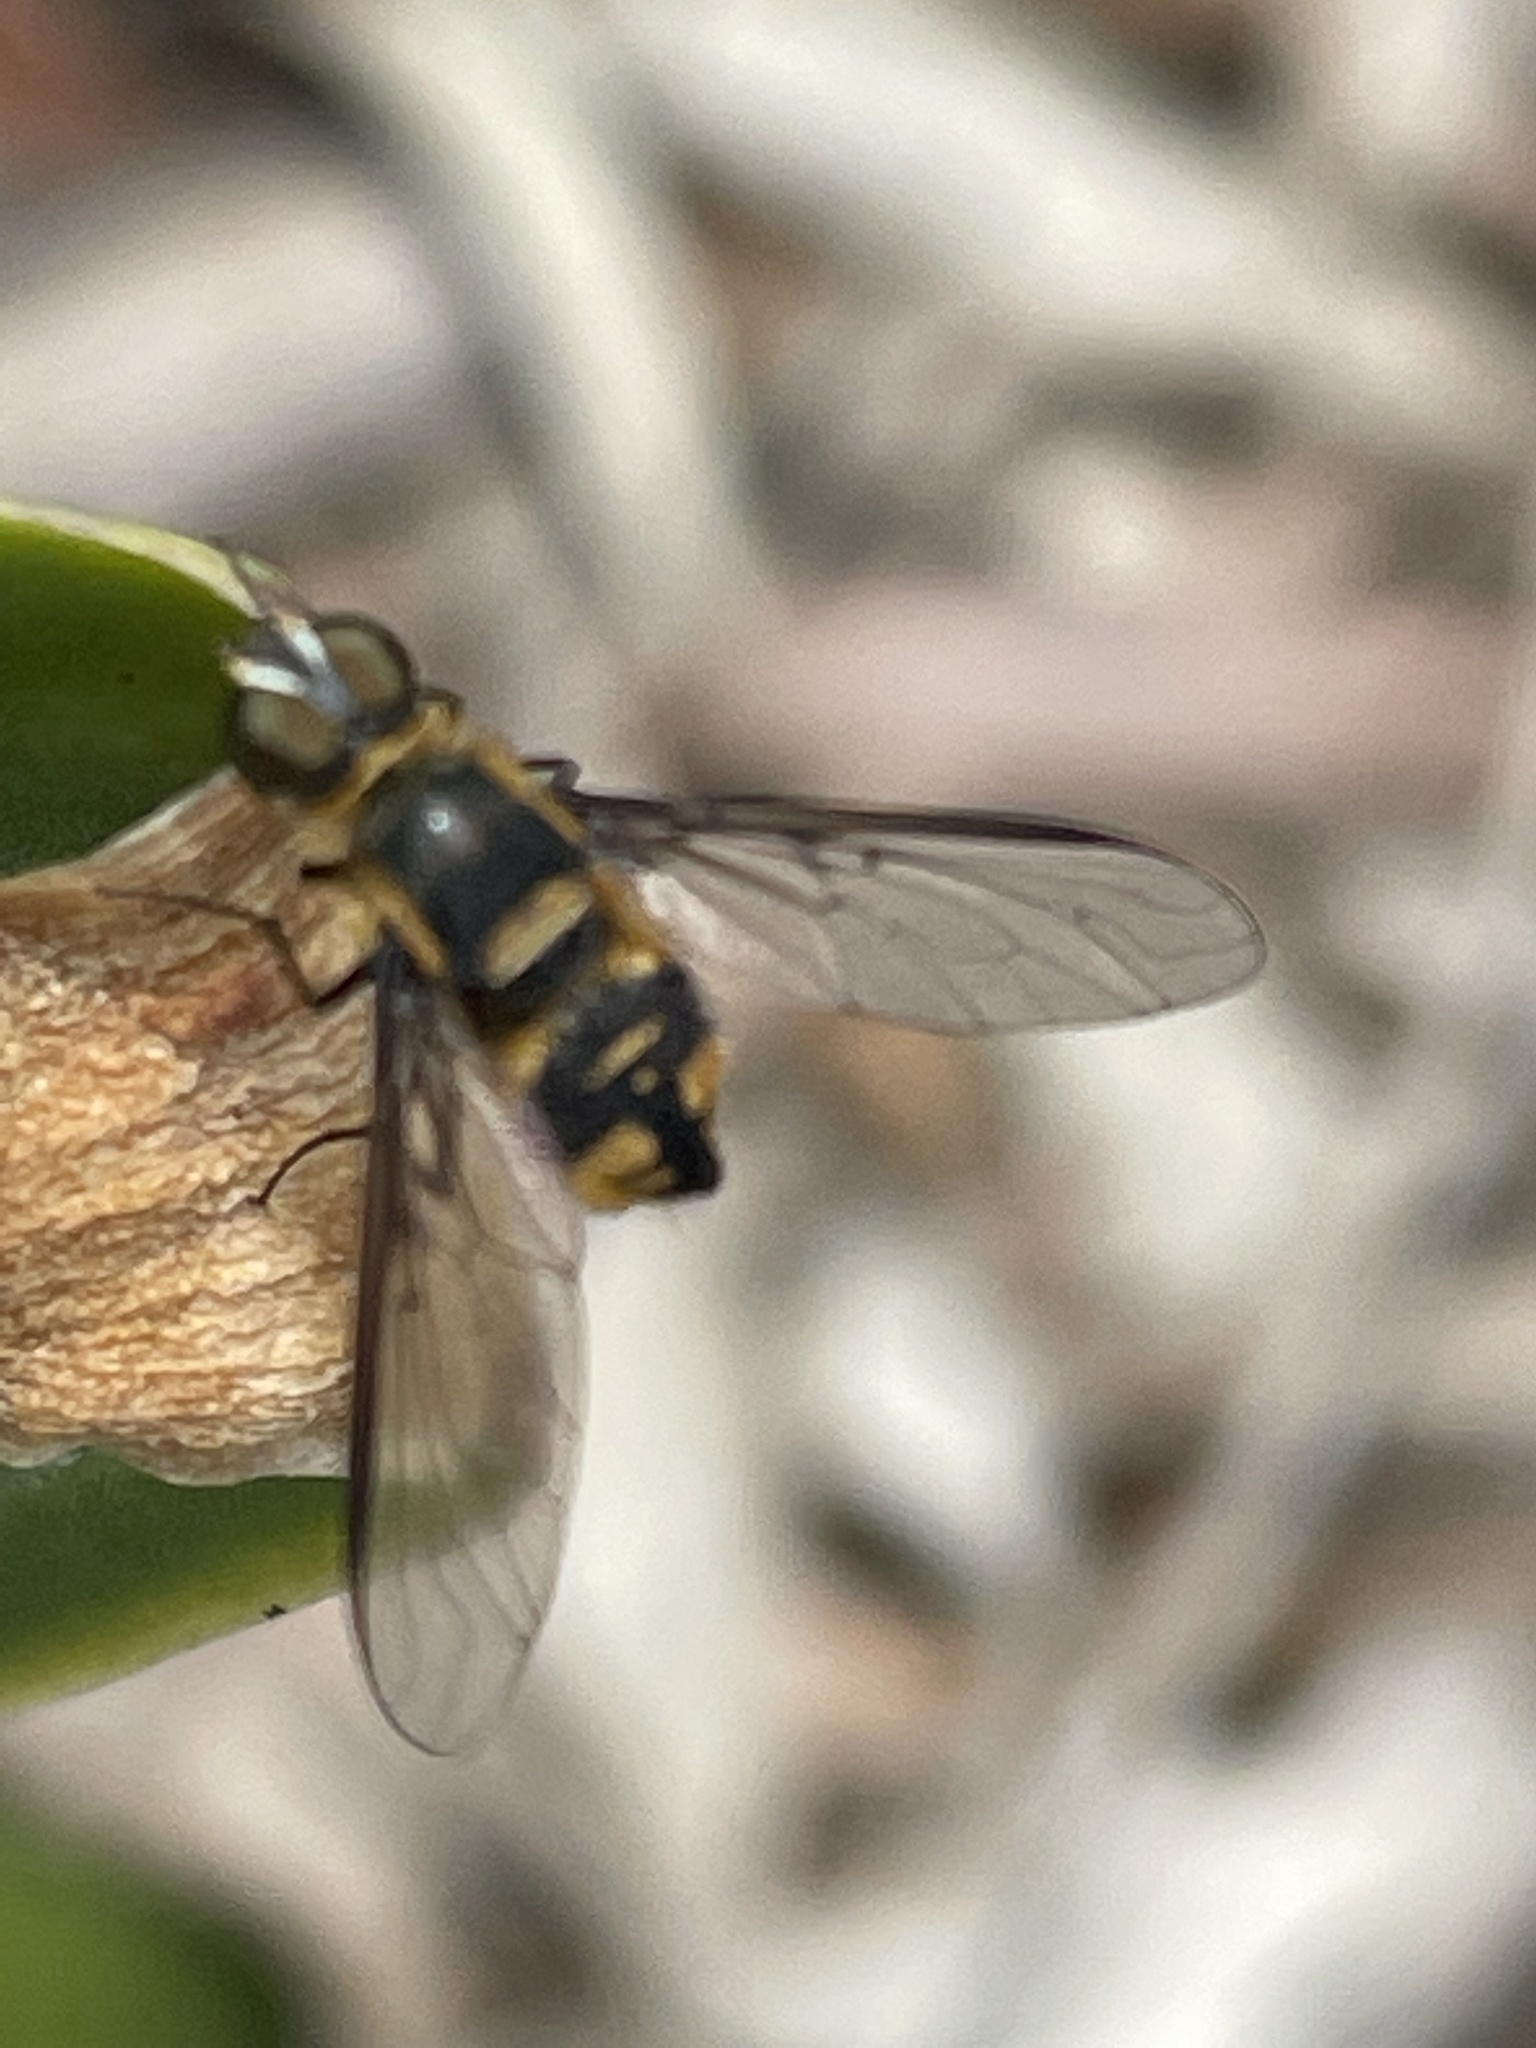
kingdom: Animalia
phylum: Arthropoda
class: Insecta
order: Diptera
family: Bombyliidae
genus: Thraxan
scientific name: Thraxan luteus
